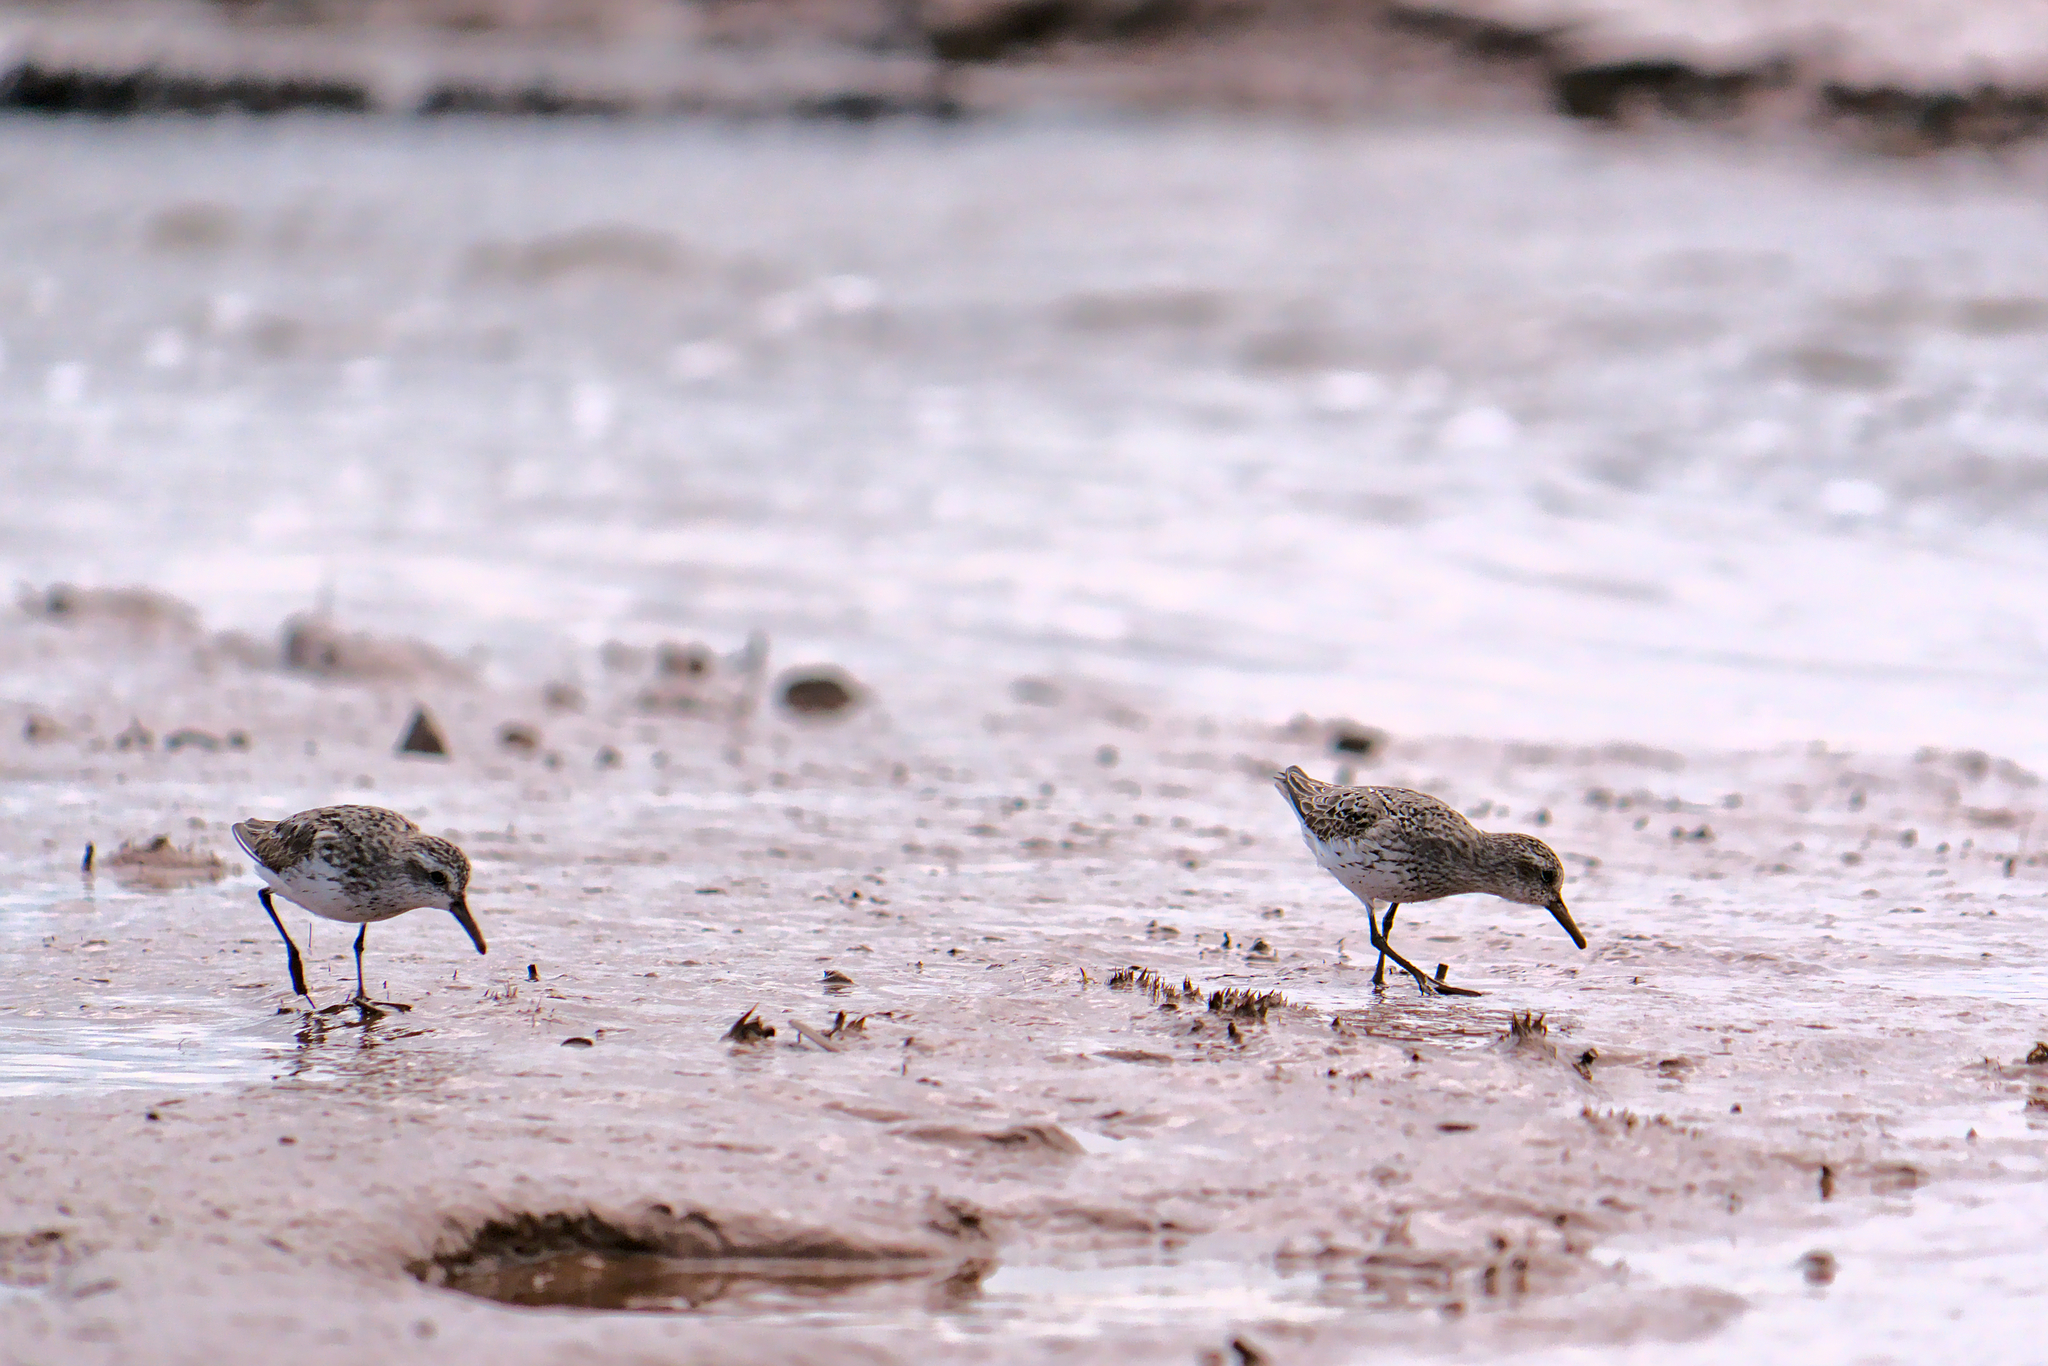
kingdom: Animalia
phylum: Chordata
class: Aves
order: Charadriiformes
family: Scolopacidae
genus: Calidris
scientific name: Calidris pusilla
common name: Semipalmated sandpiper
